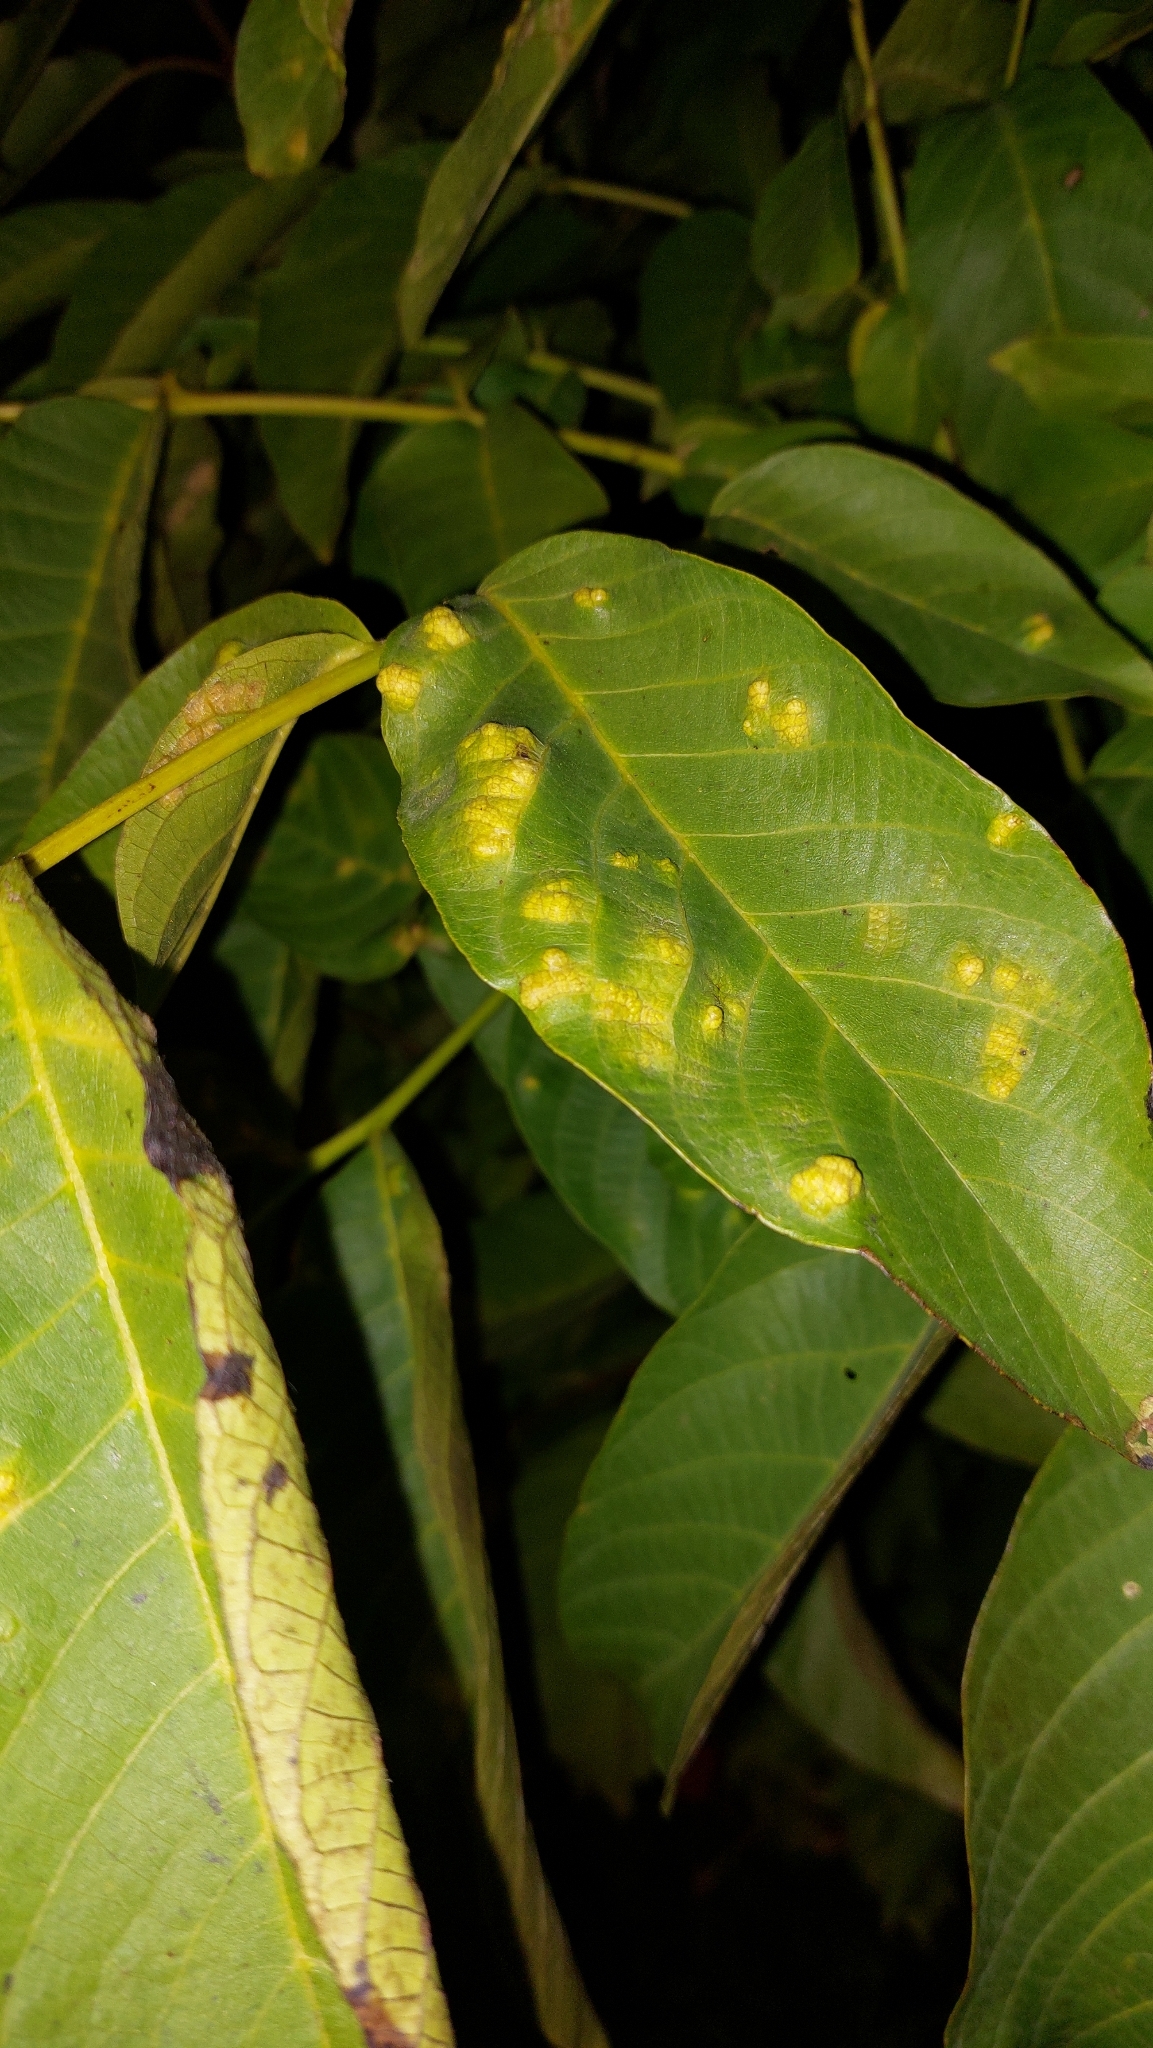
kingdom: Animalia
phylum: Arthropoda
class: Arachnida
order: Trombidiformes
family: Eriophyidae
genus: Aceria
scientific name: Aceria erinea
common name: Persian walnut erineum mite
